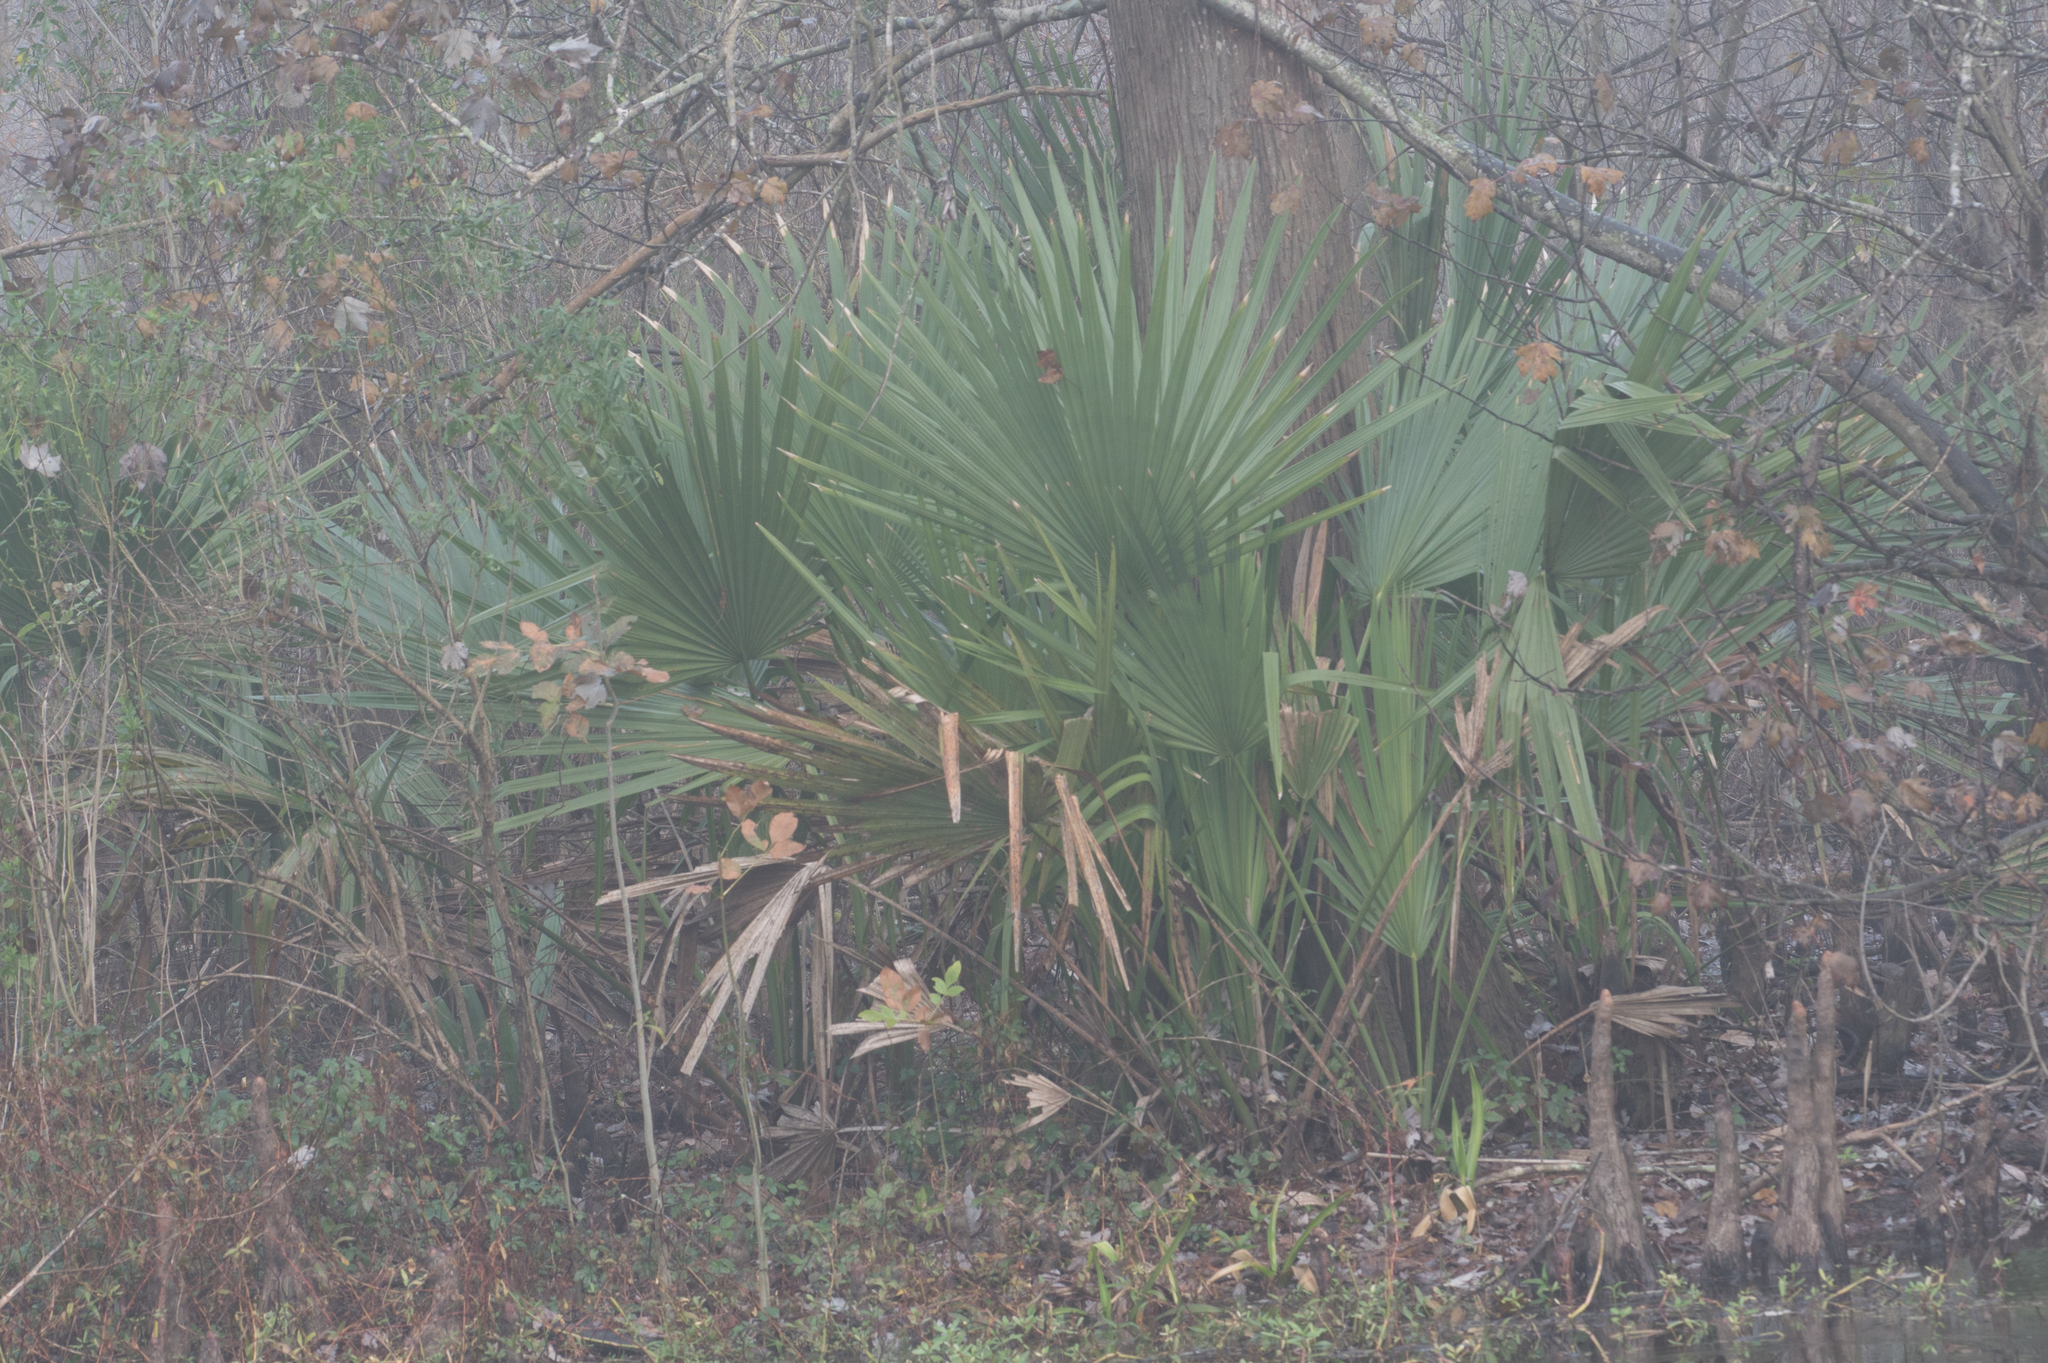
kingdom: Plantae
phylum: Tracheophyta
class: Liliopsida
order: Arecales
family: Arecaceae
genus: Sabal
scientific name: Sabal minor
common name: Dwarf palmetto
